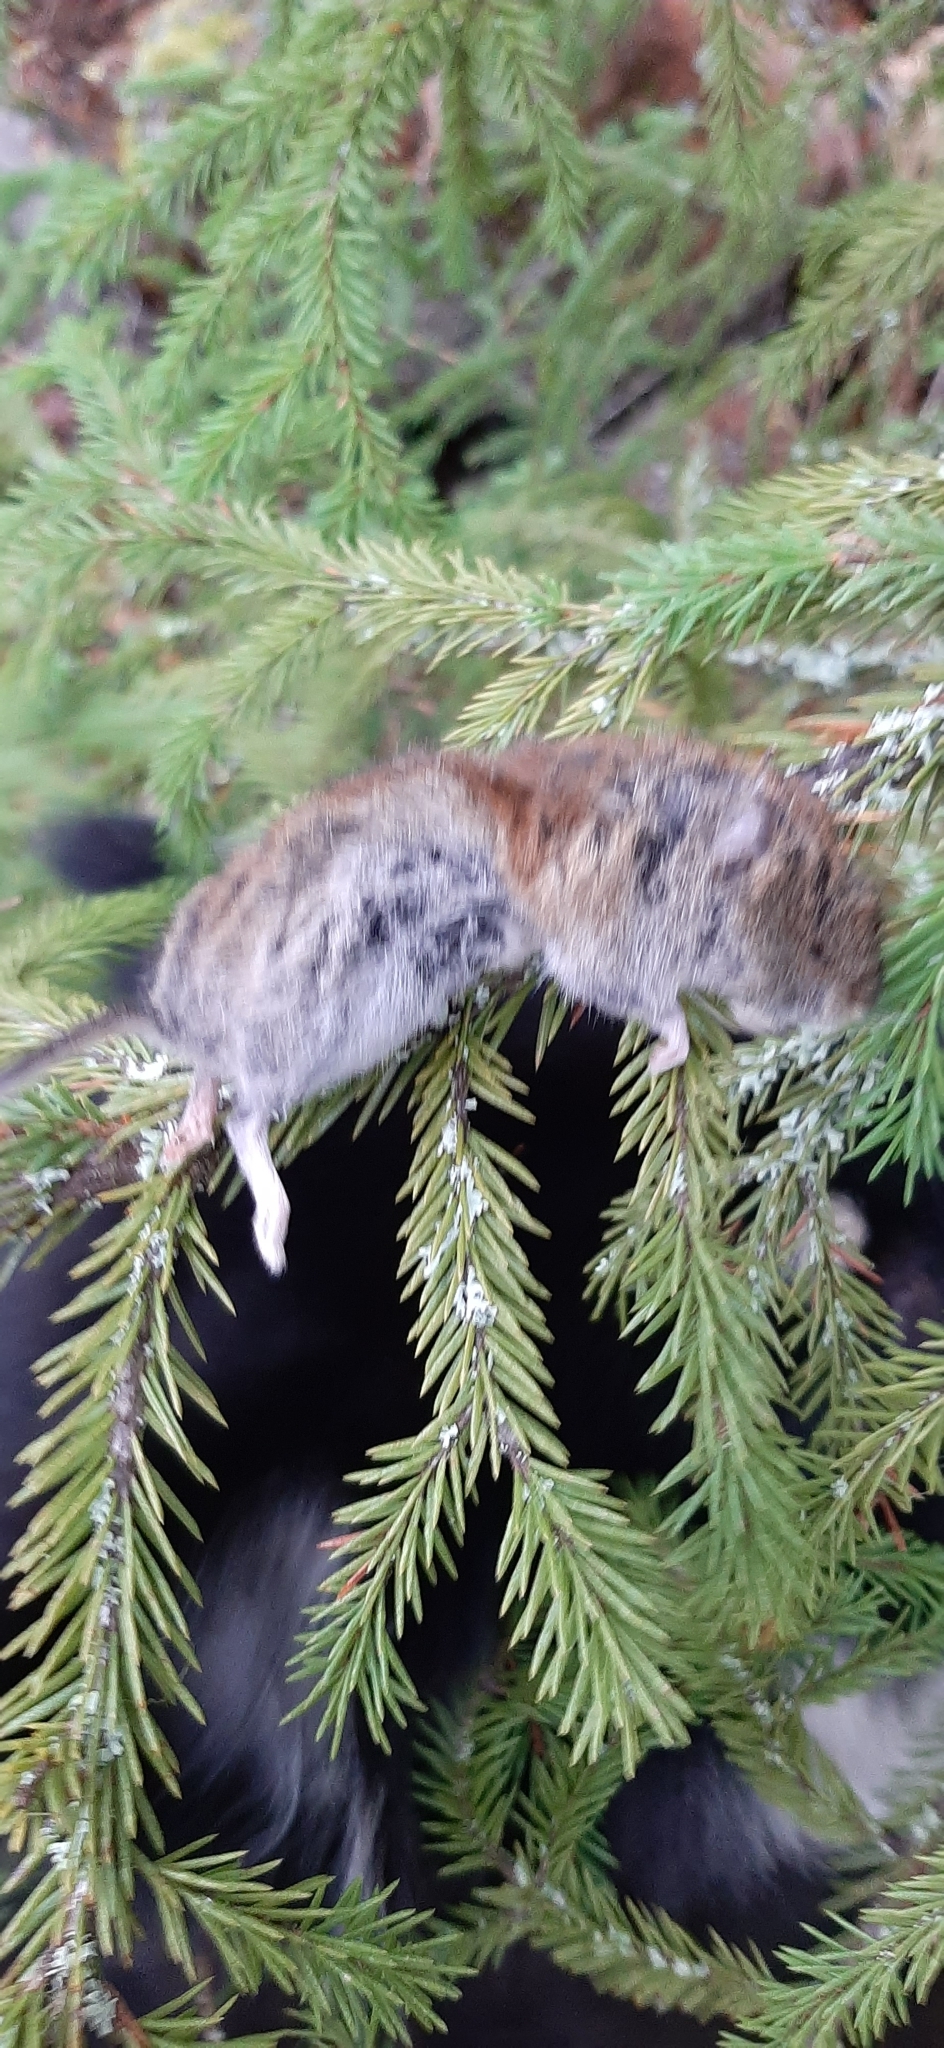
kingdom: Animalia
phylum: Chordata
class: Mammalia
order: Rodentia
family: Cricetidae
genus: Myodes
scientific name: Myodes glareolus
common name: Bank vole
